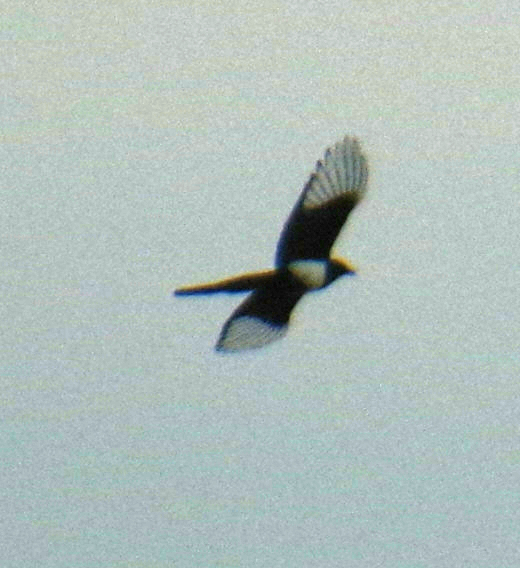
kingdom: Animalia
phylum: Chordata
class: Aves
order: Passeriformes
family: Corvidae
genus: Pica
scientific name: Pica hudsonia
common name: Black-billed magpie
